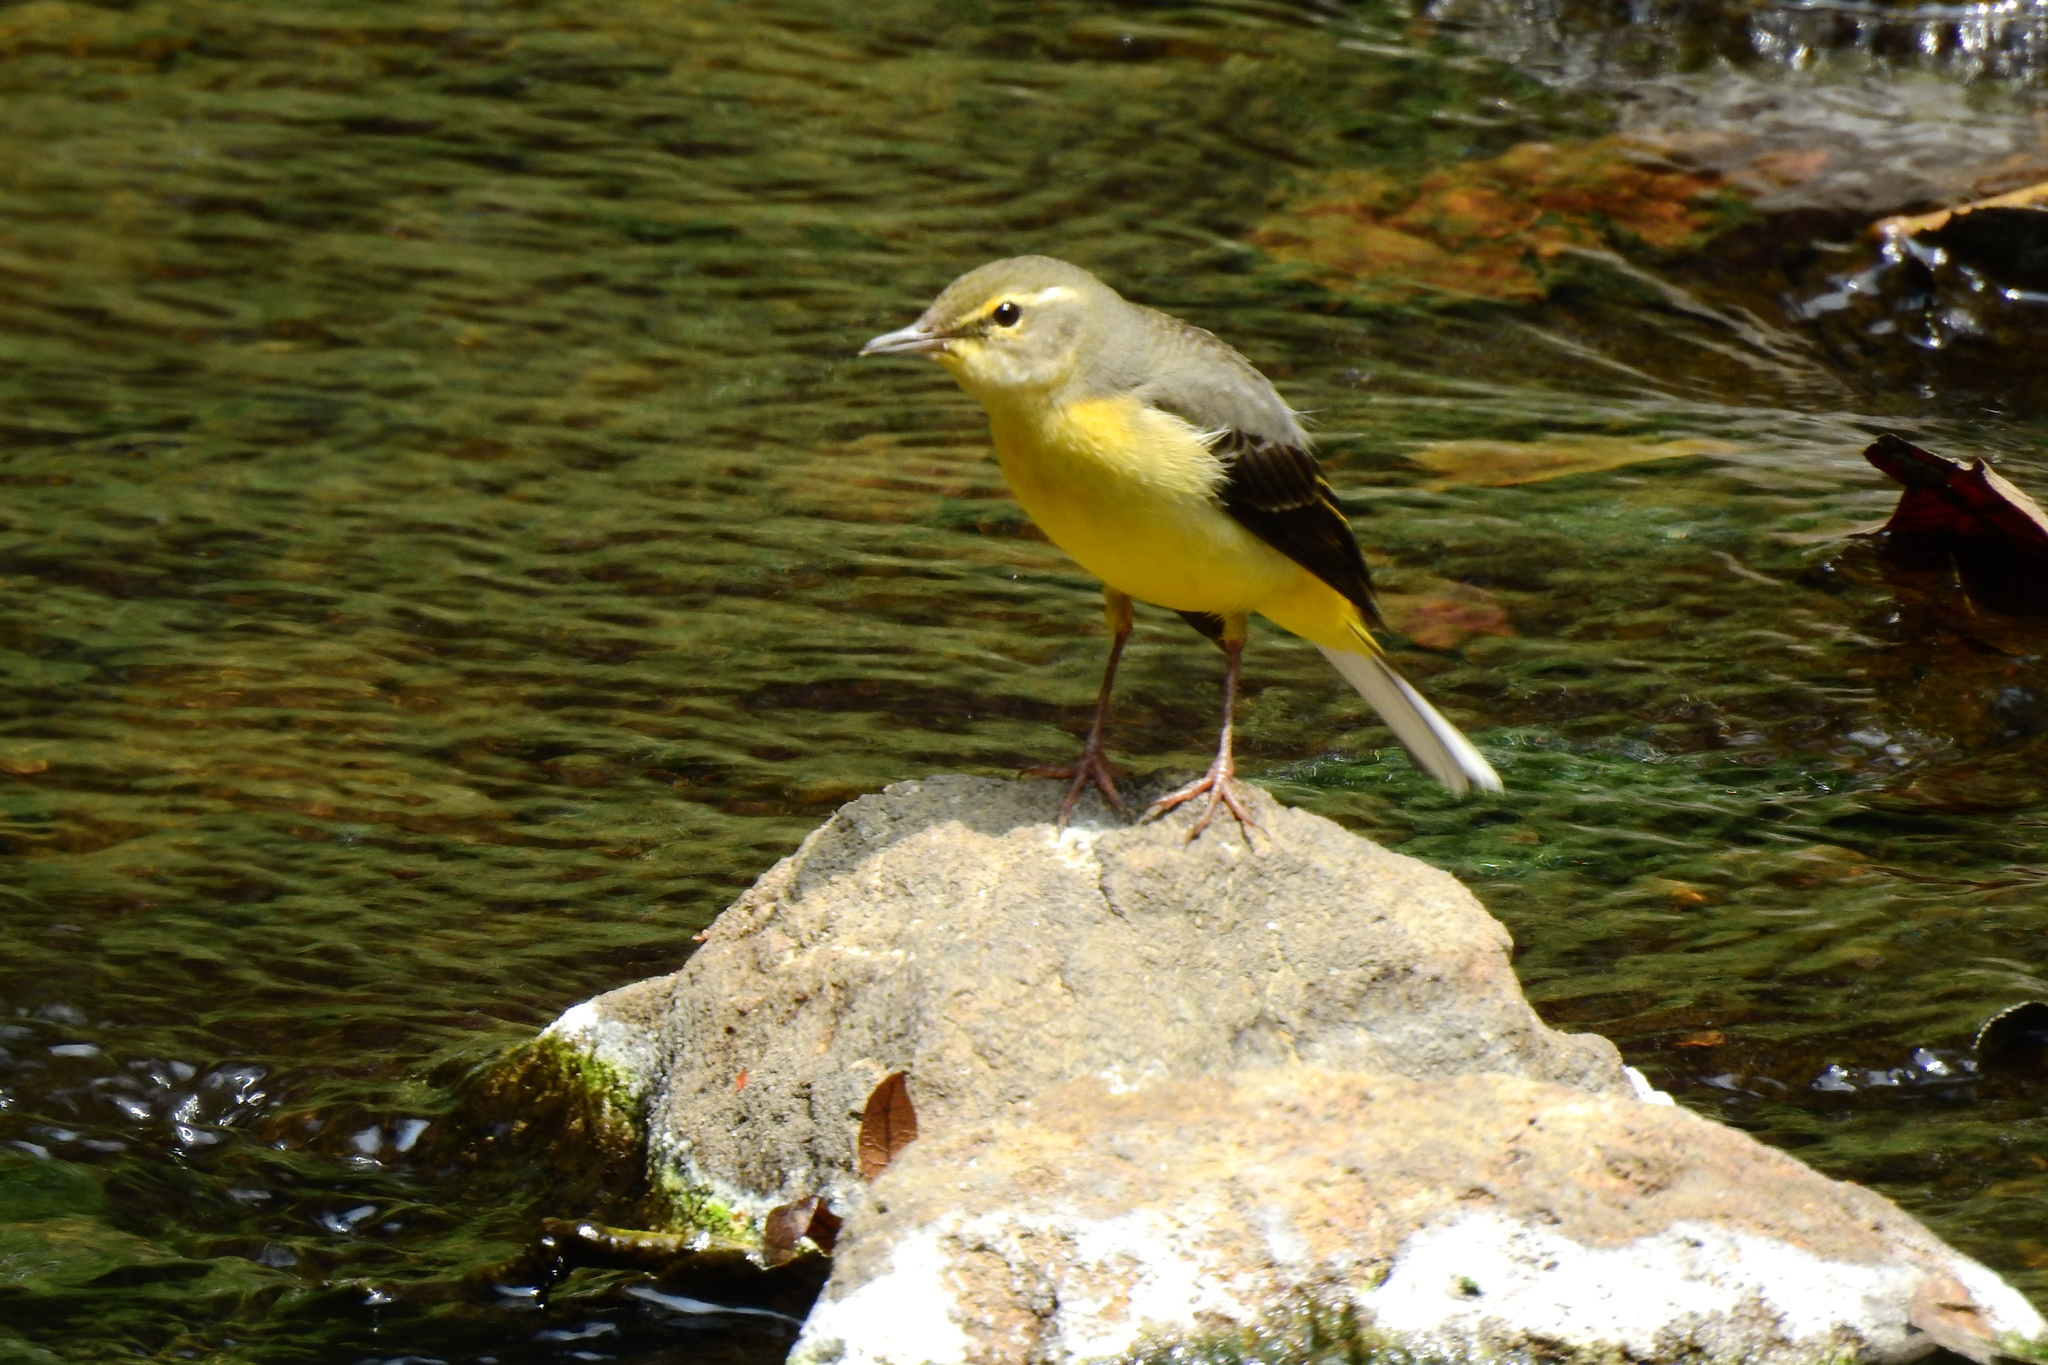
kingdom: Animalia
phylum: Chordata
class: Aves
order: Passeriformes
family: Motacillidae
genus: Motacilla
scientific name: Motacilla cinerea
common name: Grey wagtail
